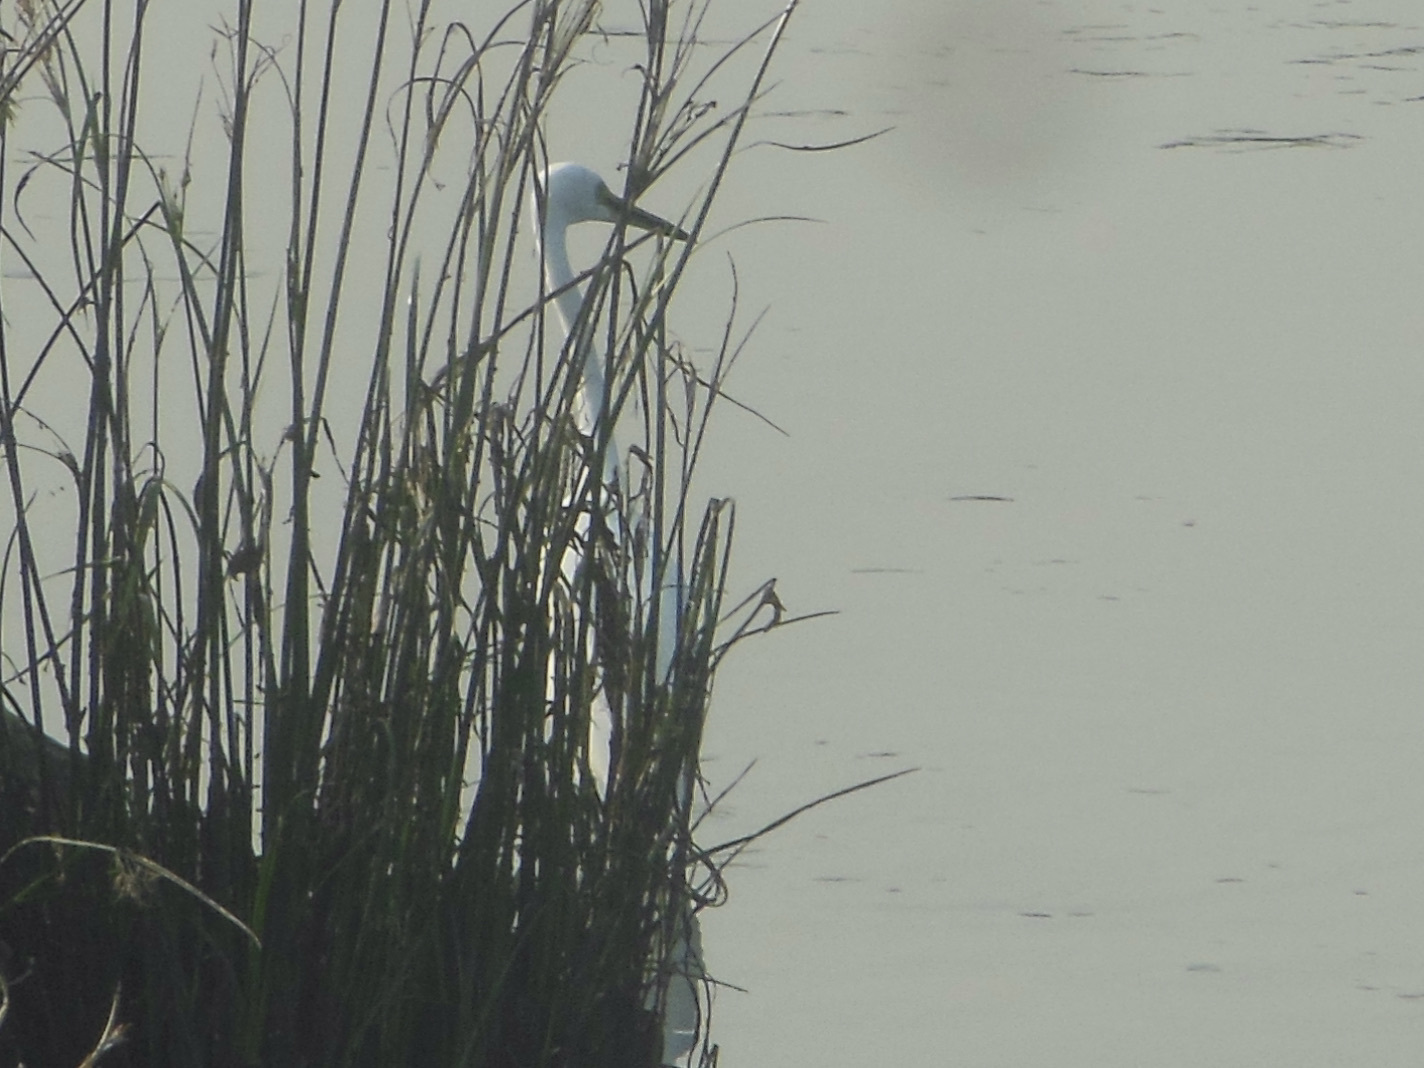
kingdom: Animalia
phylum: Chordata
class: Aves
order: Pelecaniformes
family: Ardeidae
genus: Egretta
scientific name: Egretta intermedia
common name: Intermediate egret
